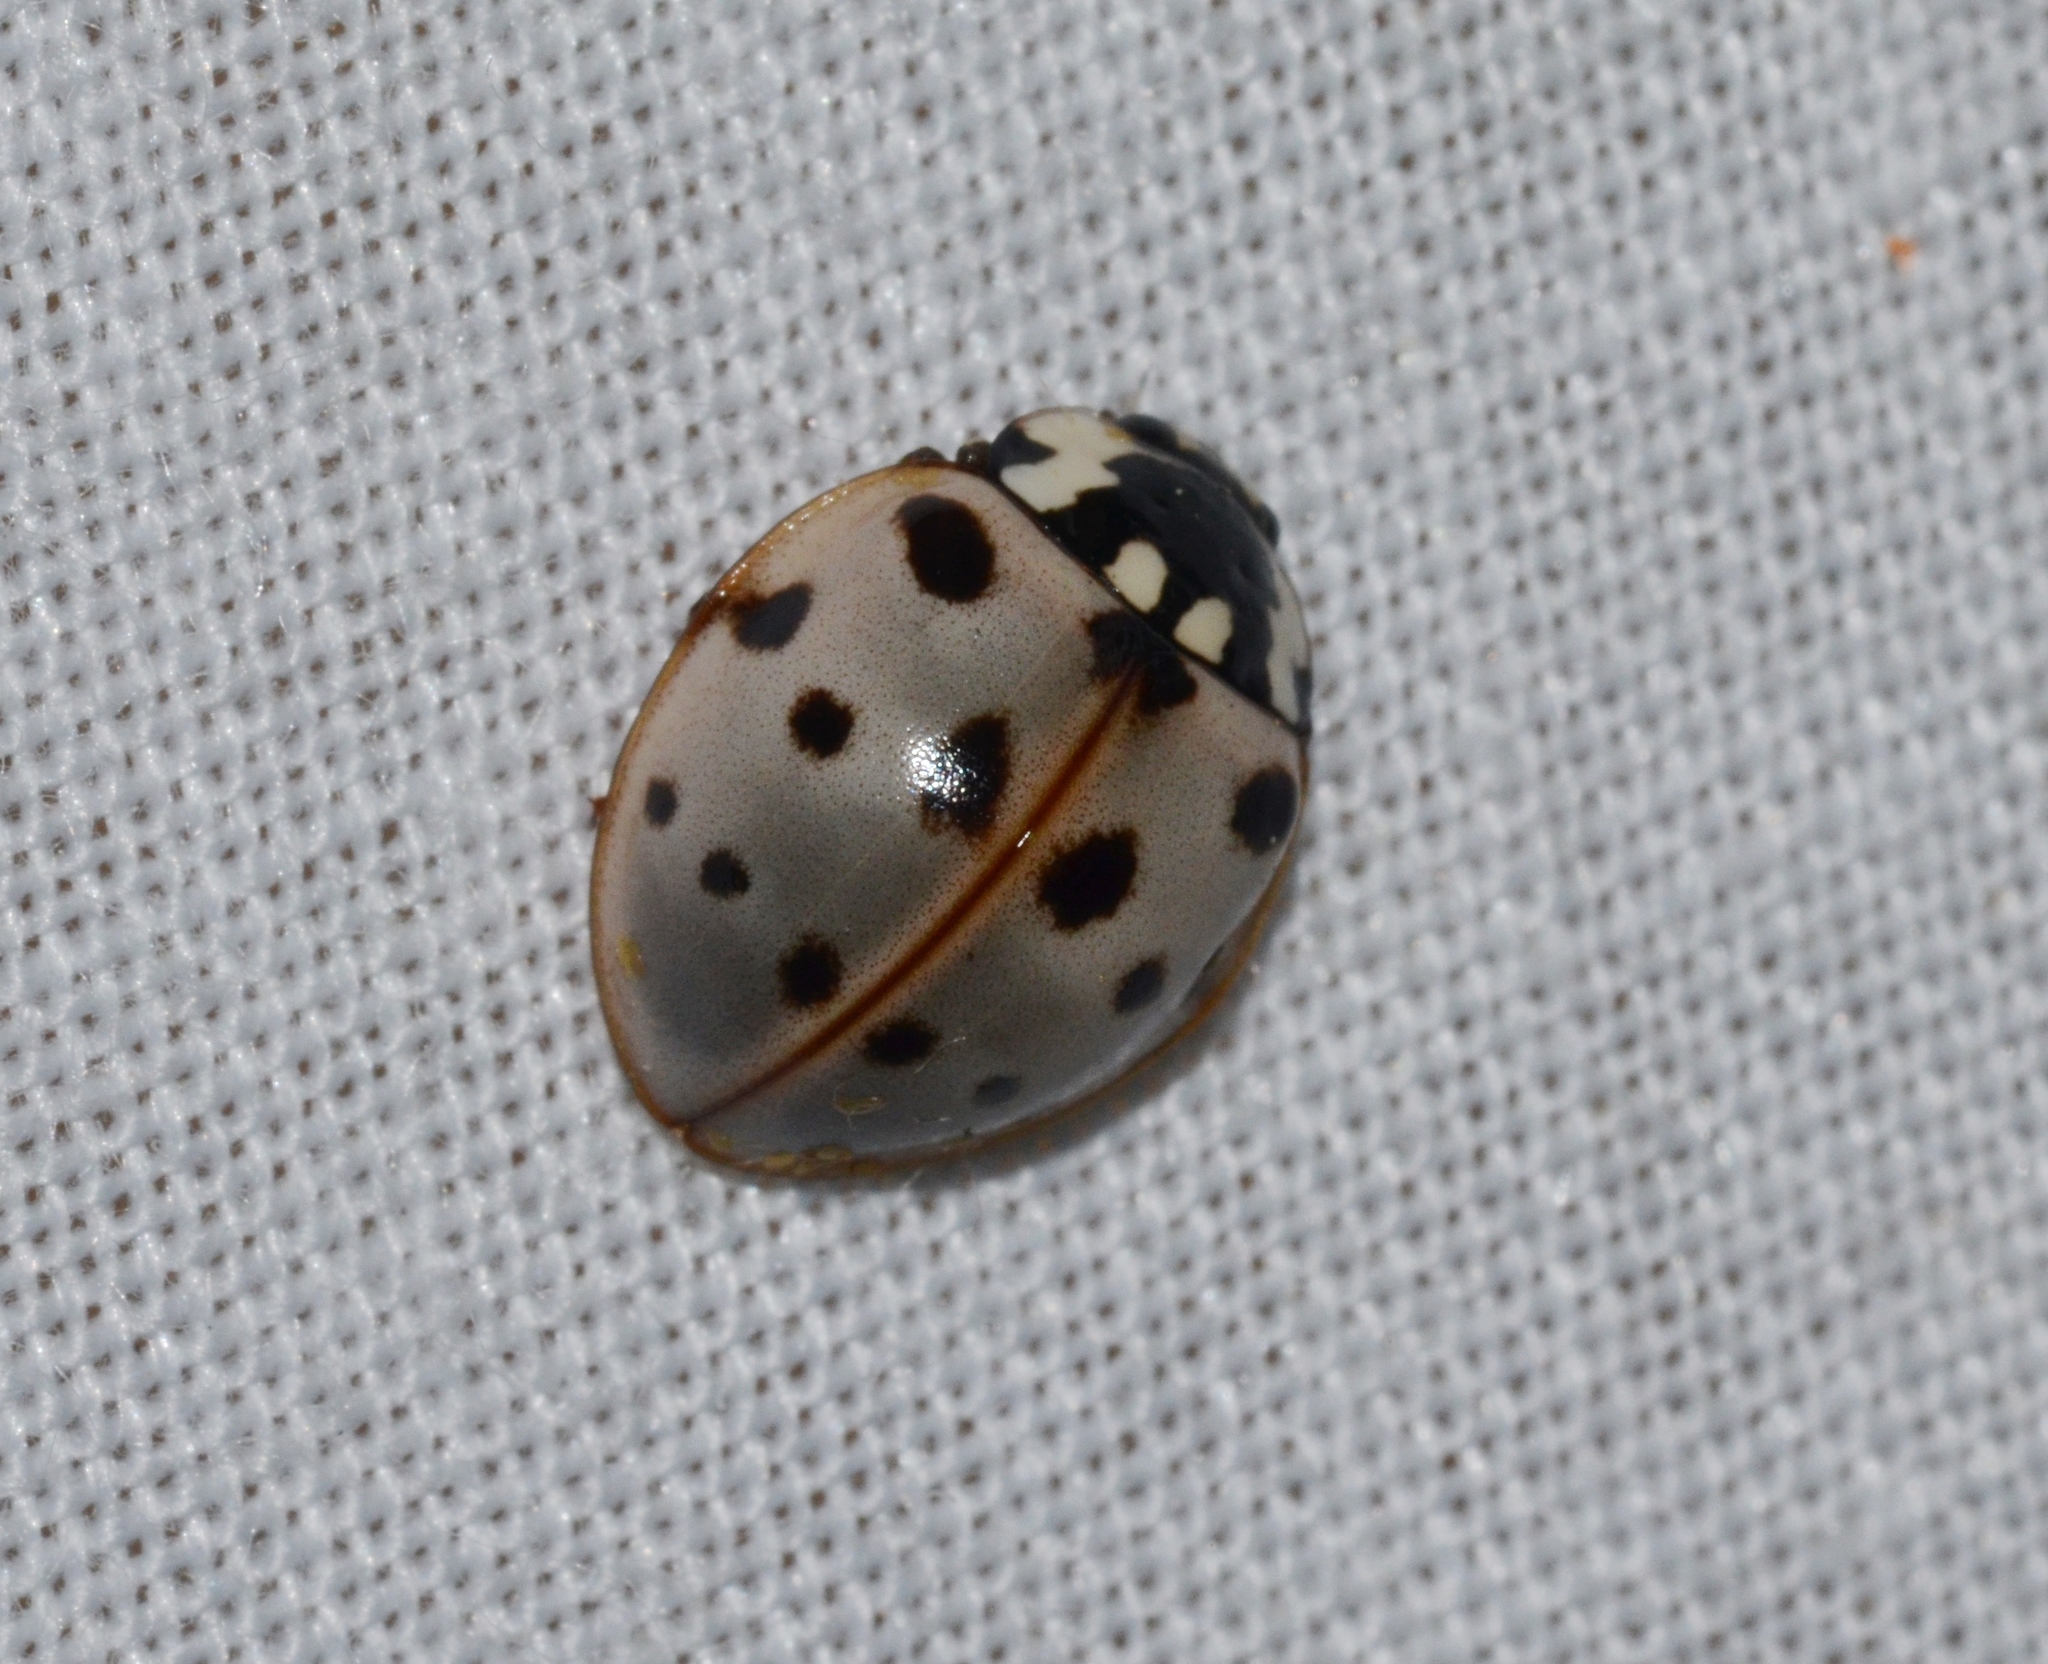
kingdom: Animalia
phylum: Arthropoda
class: Insecta
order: Coleoptera
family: Coccinellidae
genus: Anatis
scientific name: Anatis labiculata
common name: Fifteen-spotted lady beetle
